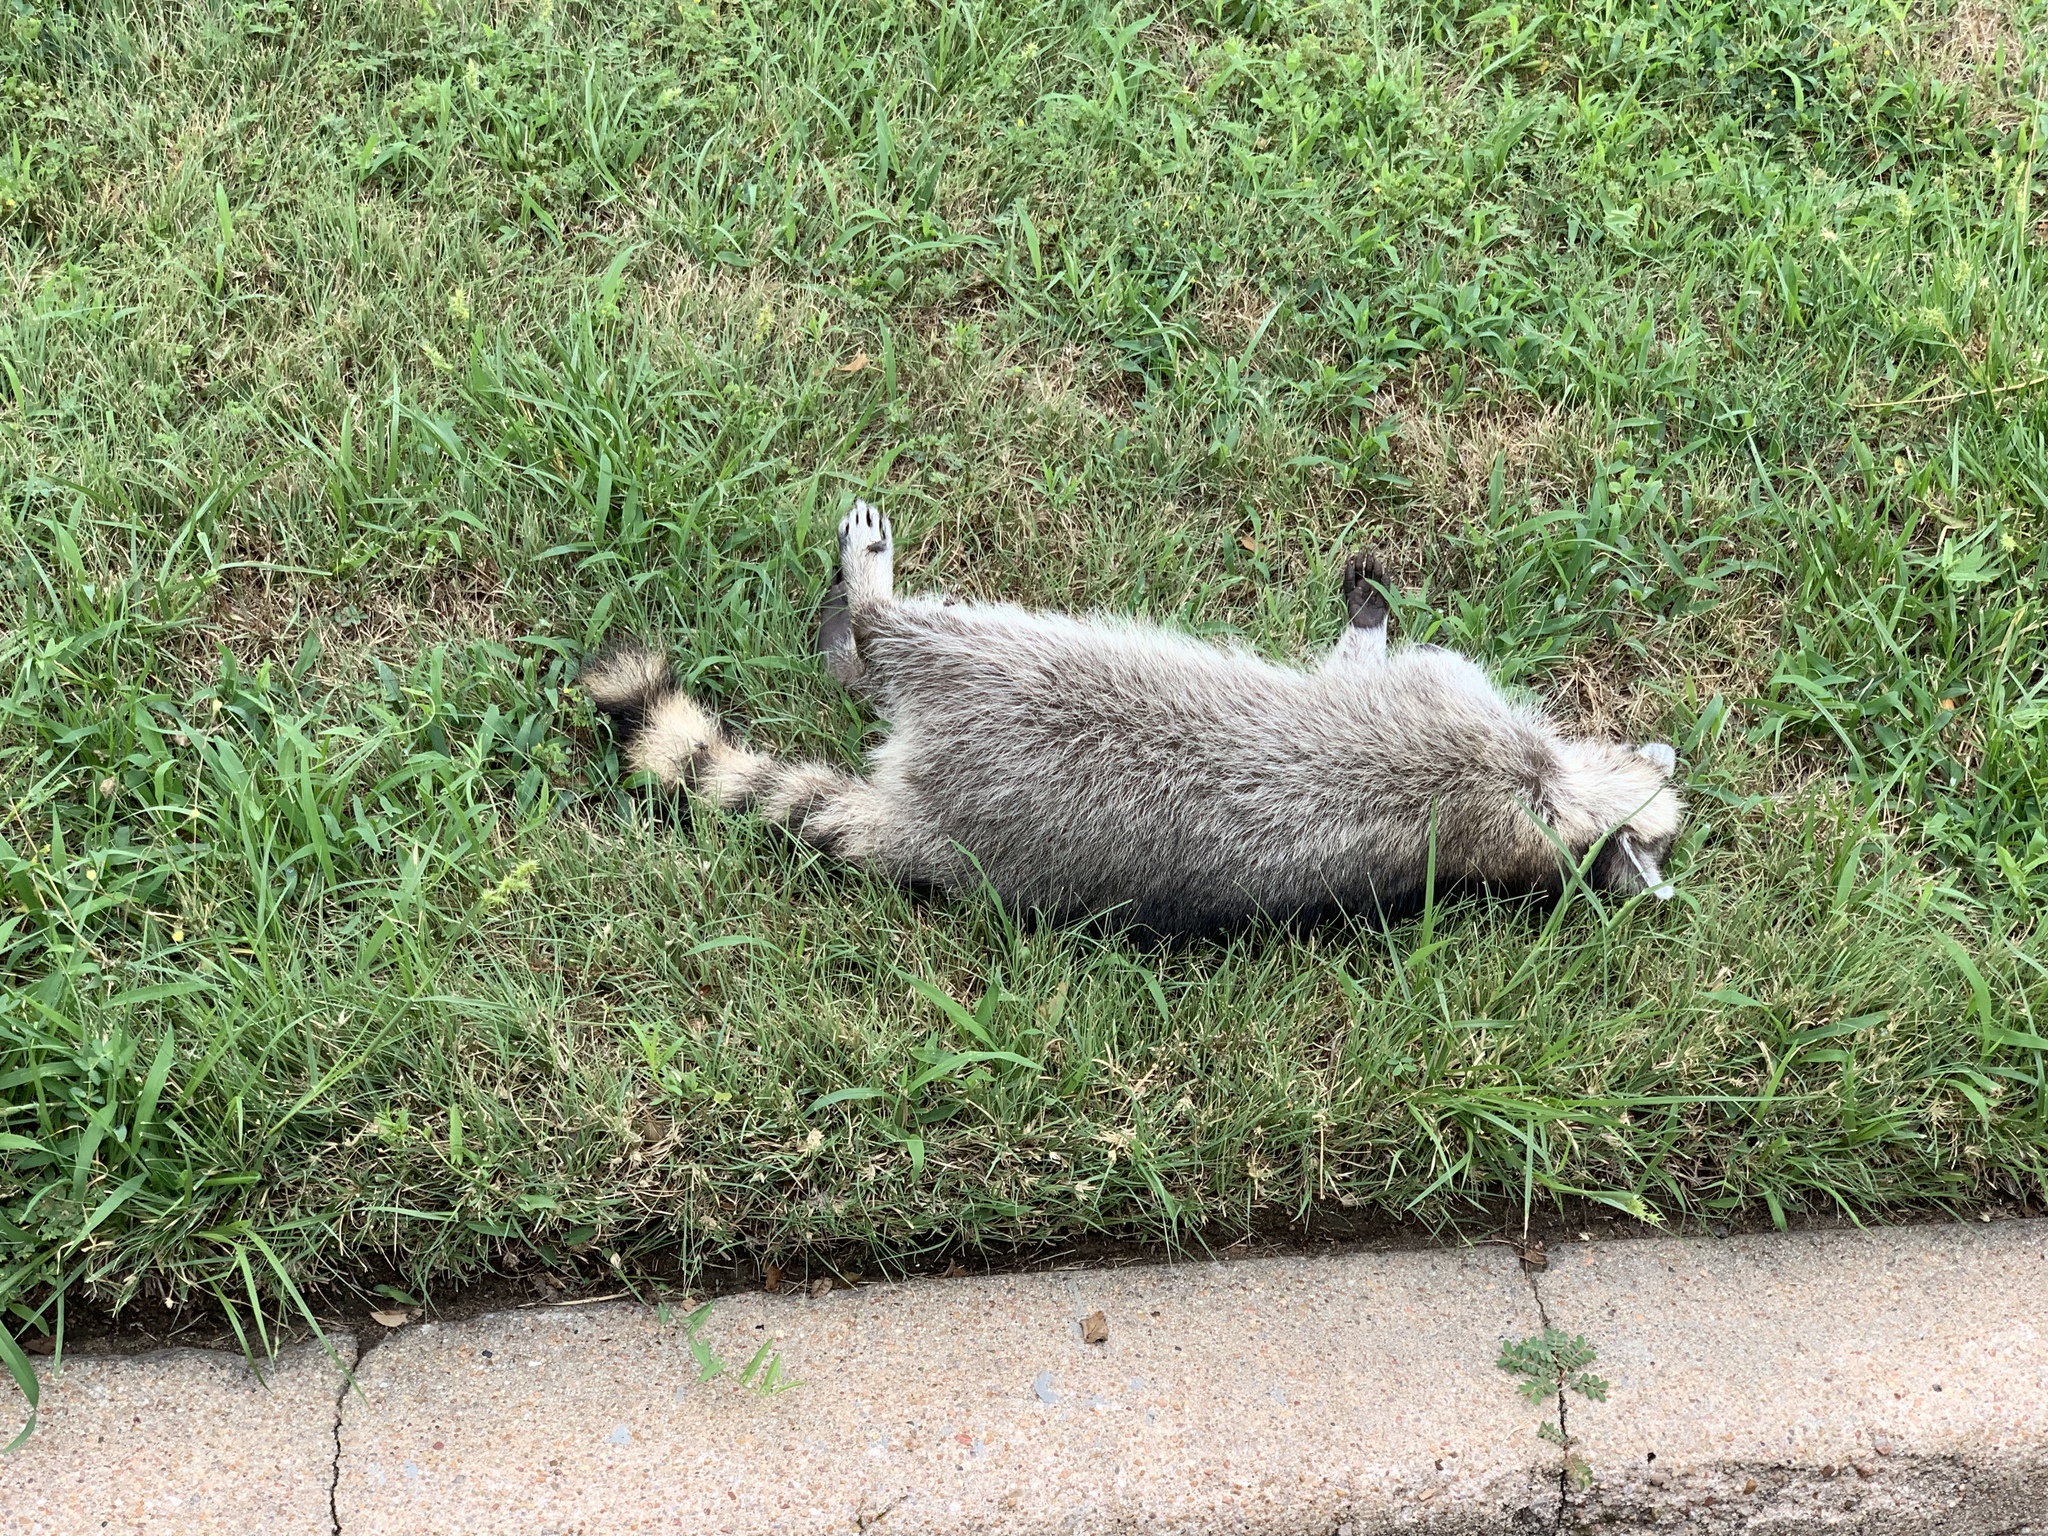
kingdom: Animalia
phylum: Chordata
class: Mammalia
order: Carnivora
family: Procyonidae
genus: Procyon
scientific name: Procyon lotor
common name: Raccoon
